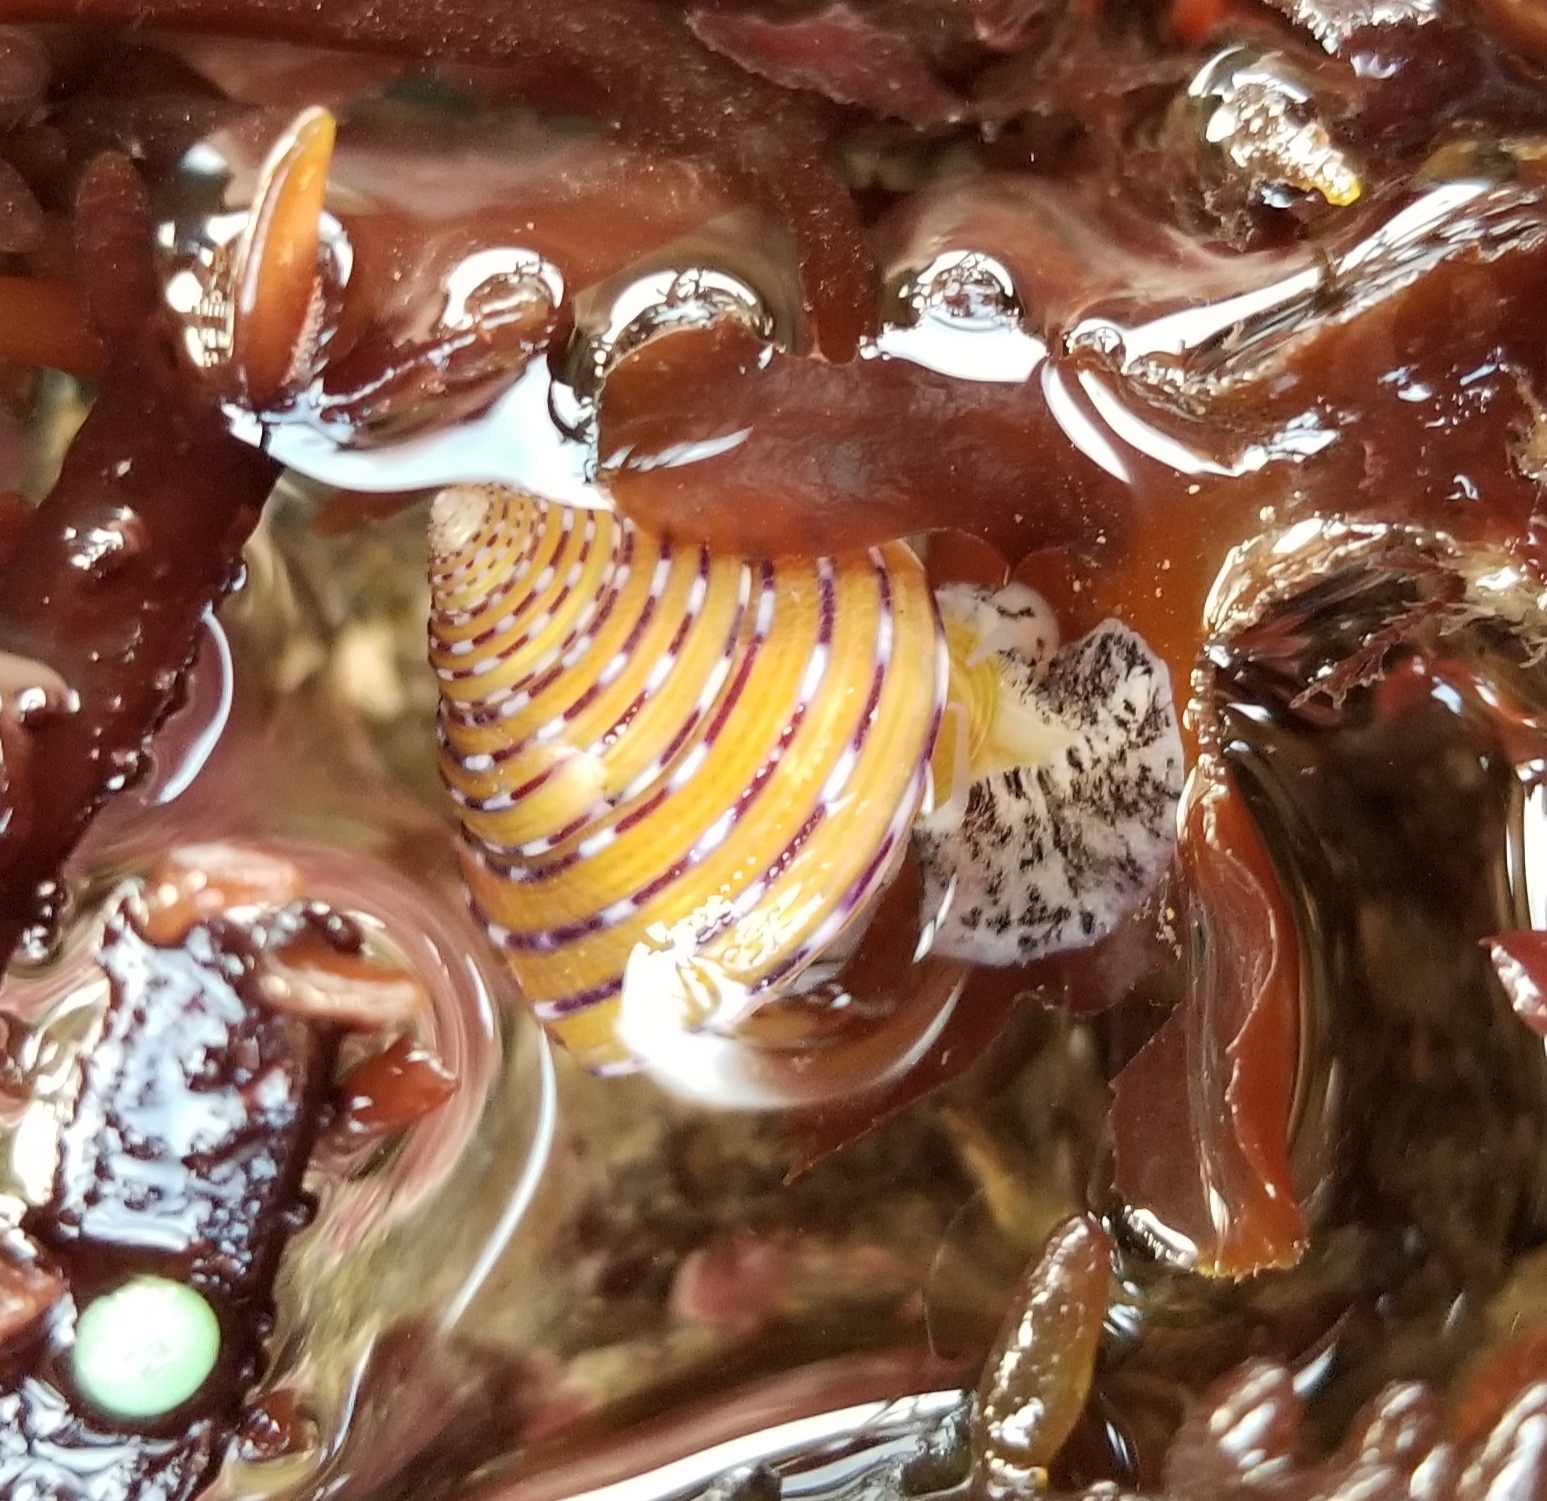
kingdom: Animalia
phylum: Mollusca
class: Gastropoda
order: Trochida
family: Calliostomatidae
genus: Calliostoma
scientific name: Calliostoma tricolor
